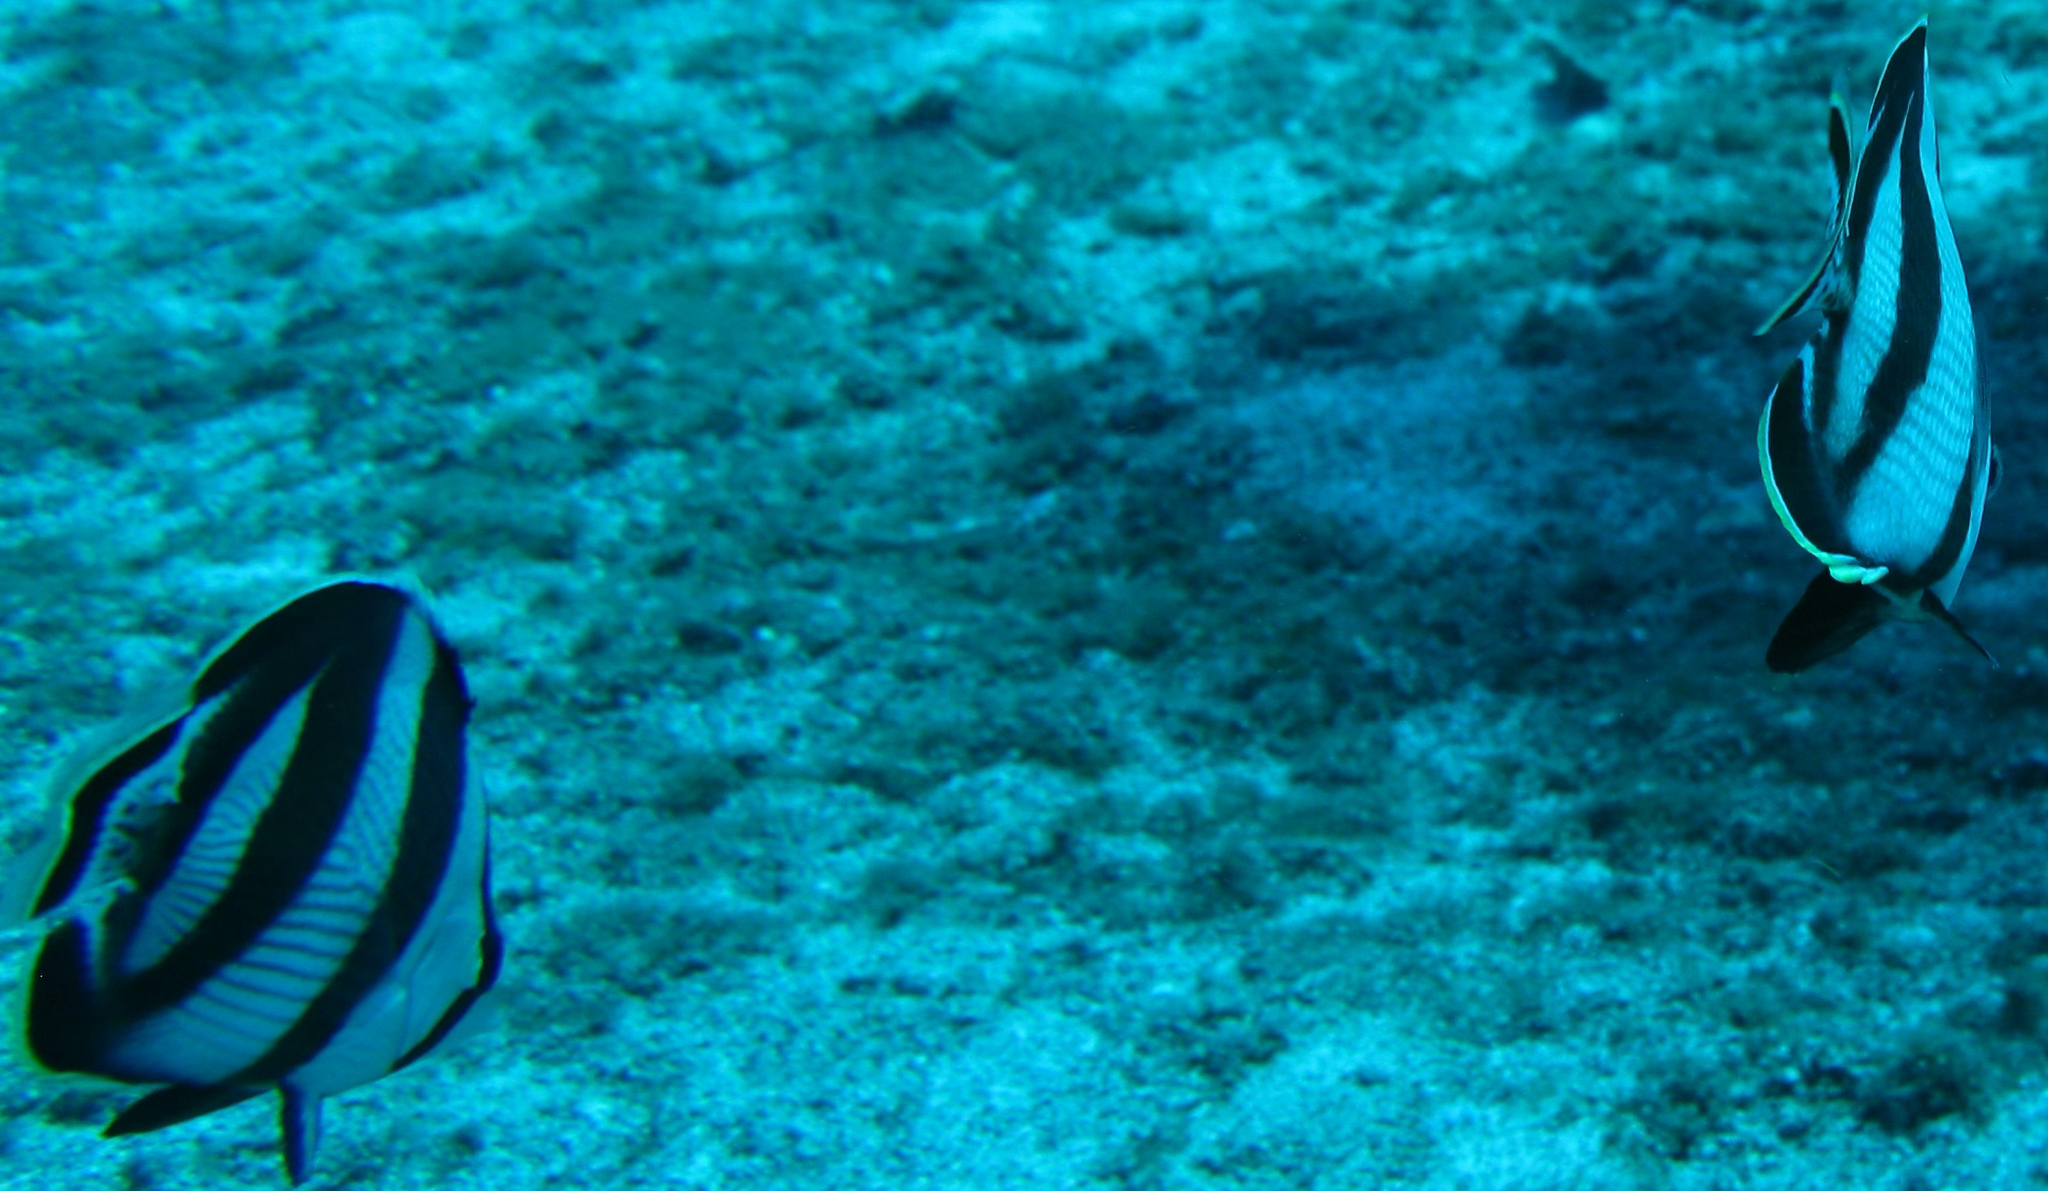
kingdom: Animalia
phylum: Chordata
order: Perciformes
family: Chaetodontidae
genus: Chaetodon
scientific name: Chaetodon striatus
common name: Banded butterflyfish
